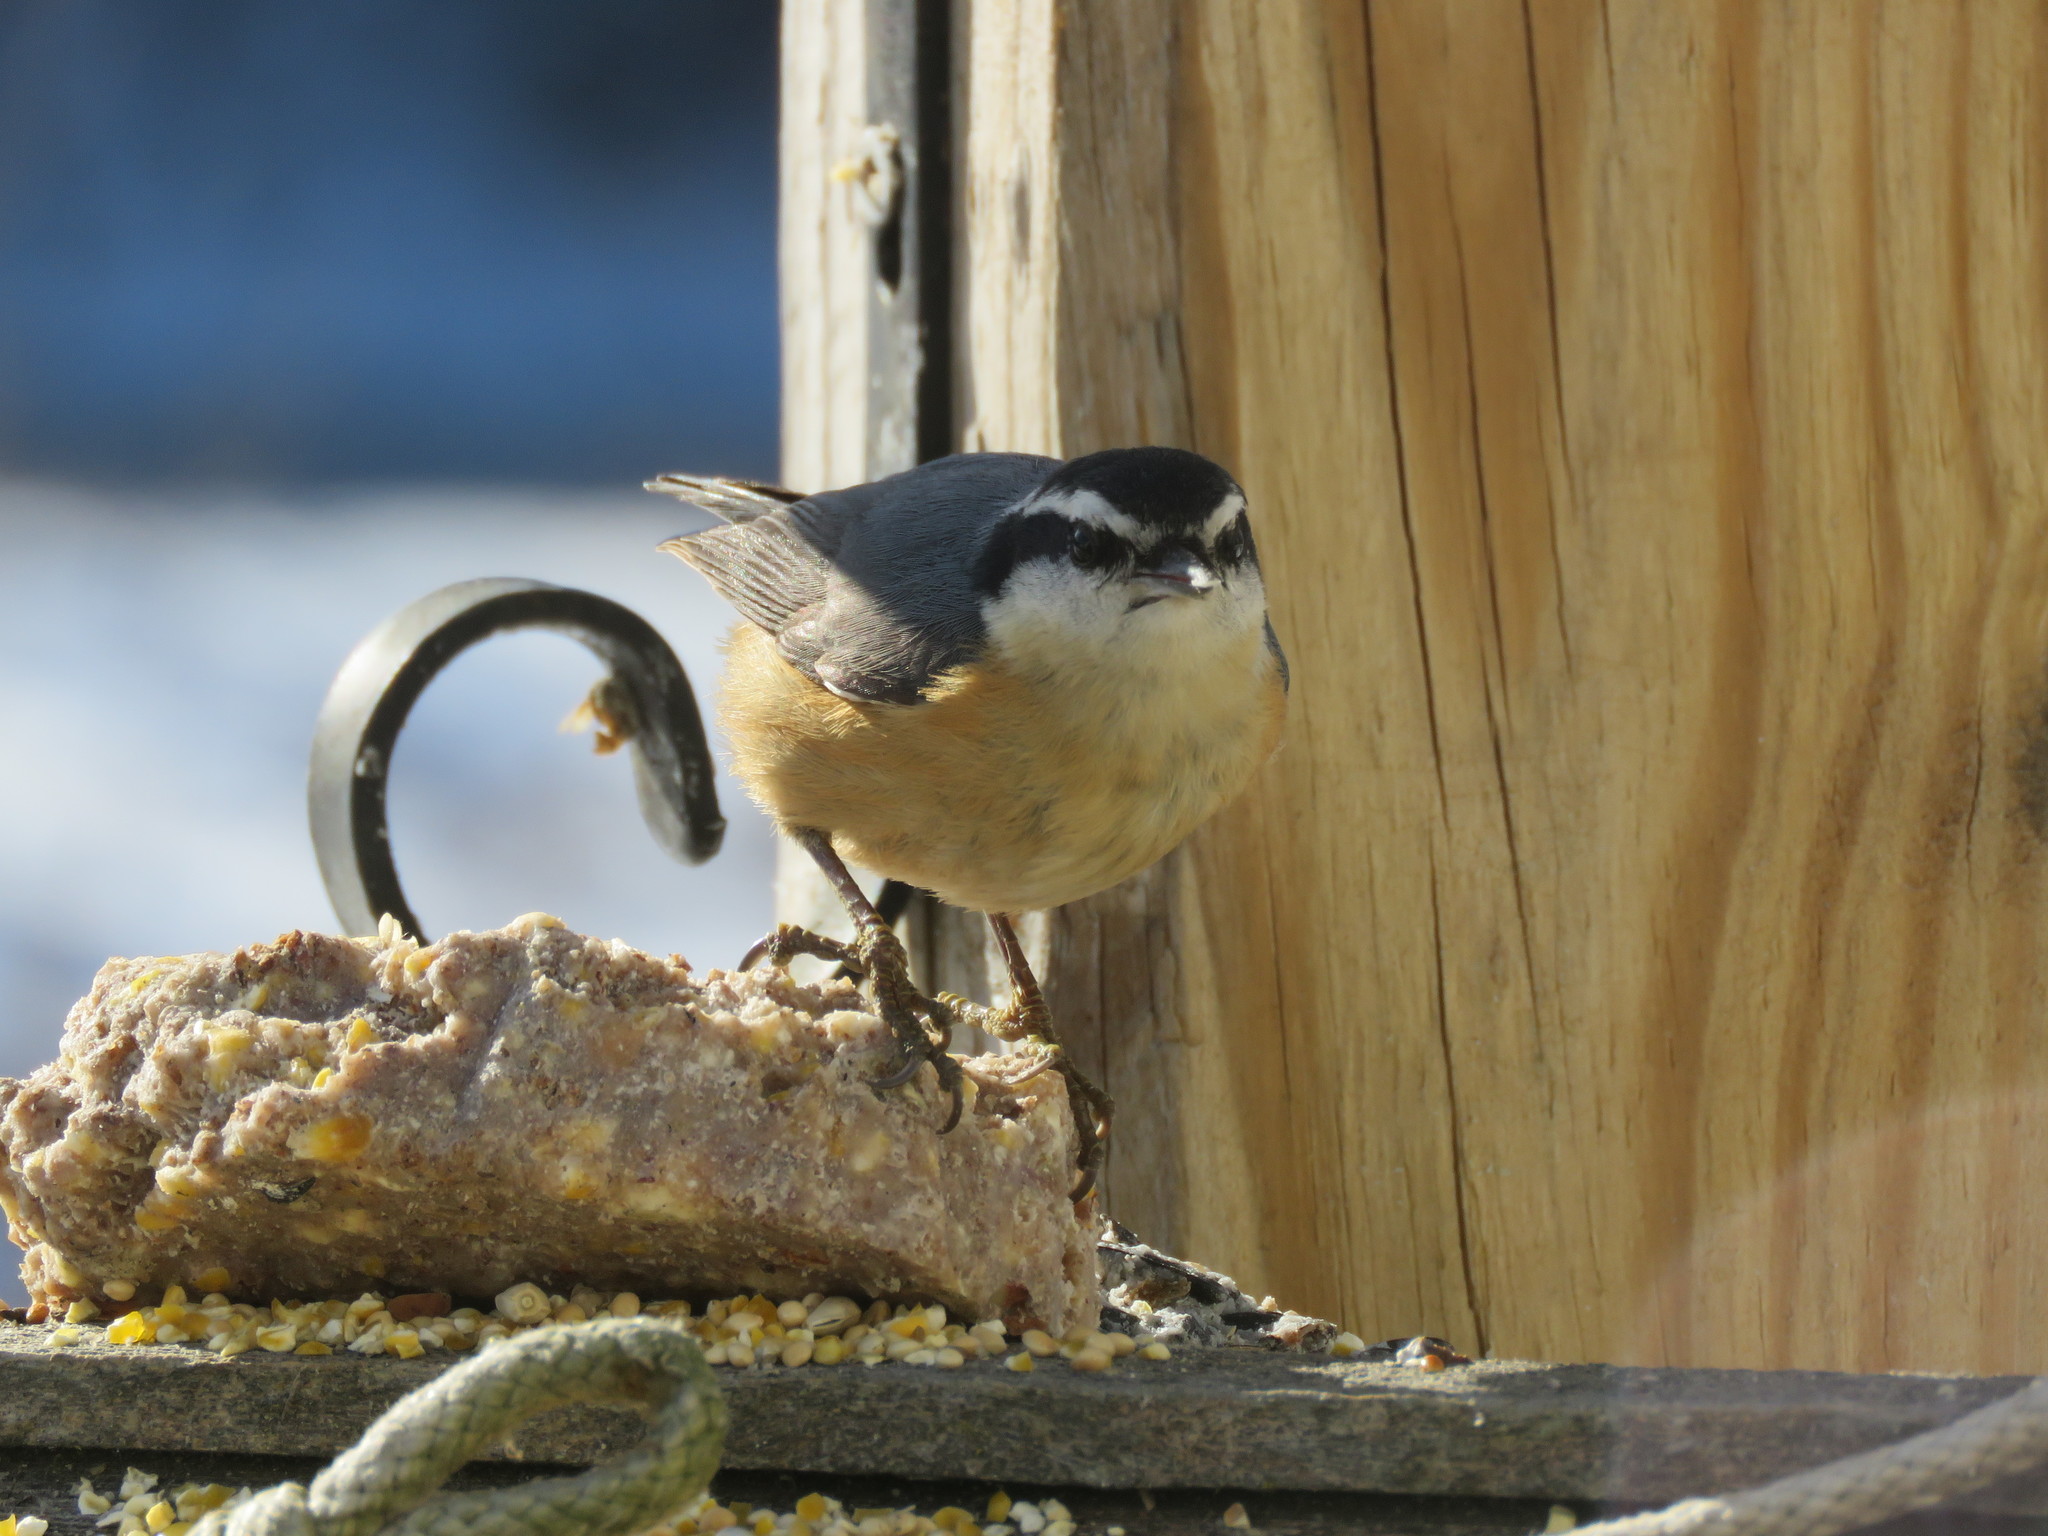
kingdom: Animalia
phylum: Chordata
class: Aves
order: Passeriformes
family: Sittidae
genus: Sitta
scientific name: Sitta canadensis
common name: Red-breasted nuthatch
